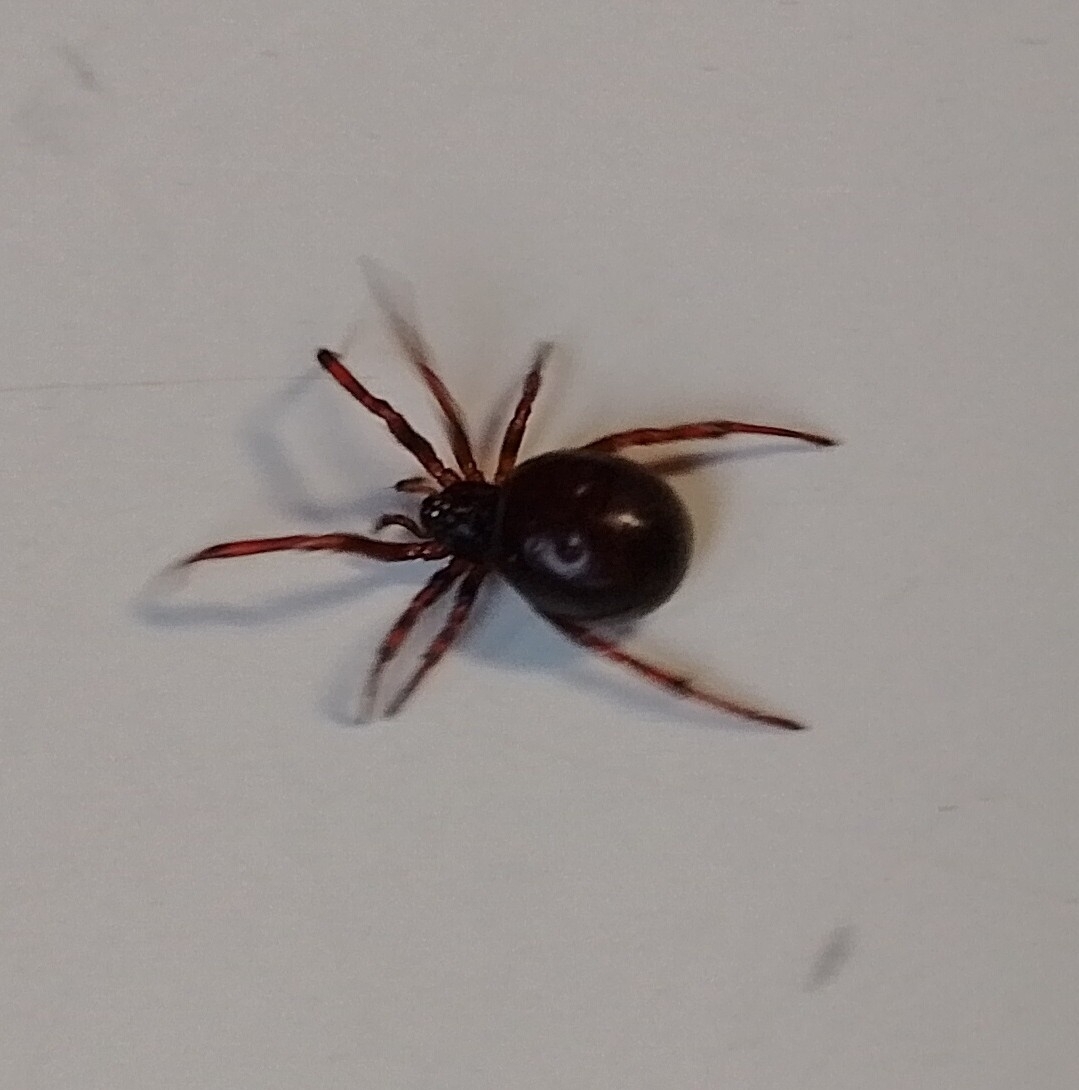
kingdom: Animalia
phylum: Arthropoda
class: Arachnida
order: Araneae
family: Theridiidae
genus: Steatoda
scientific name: Steatoda bipunctata
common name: False widow
